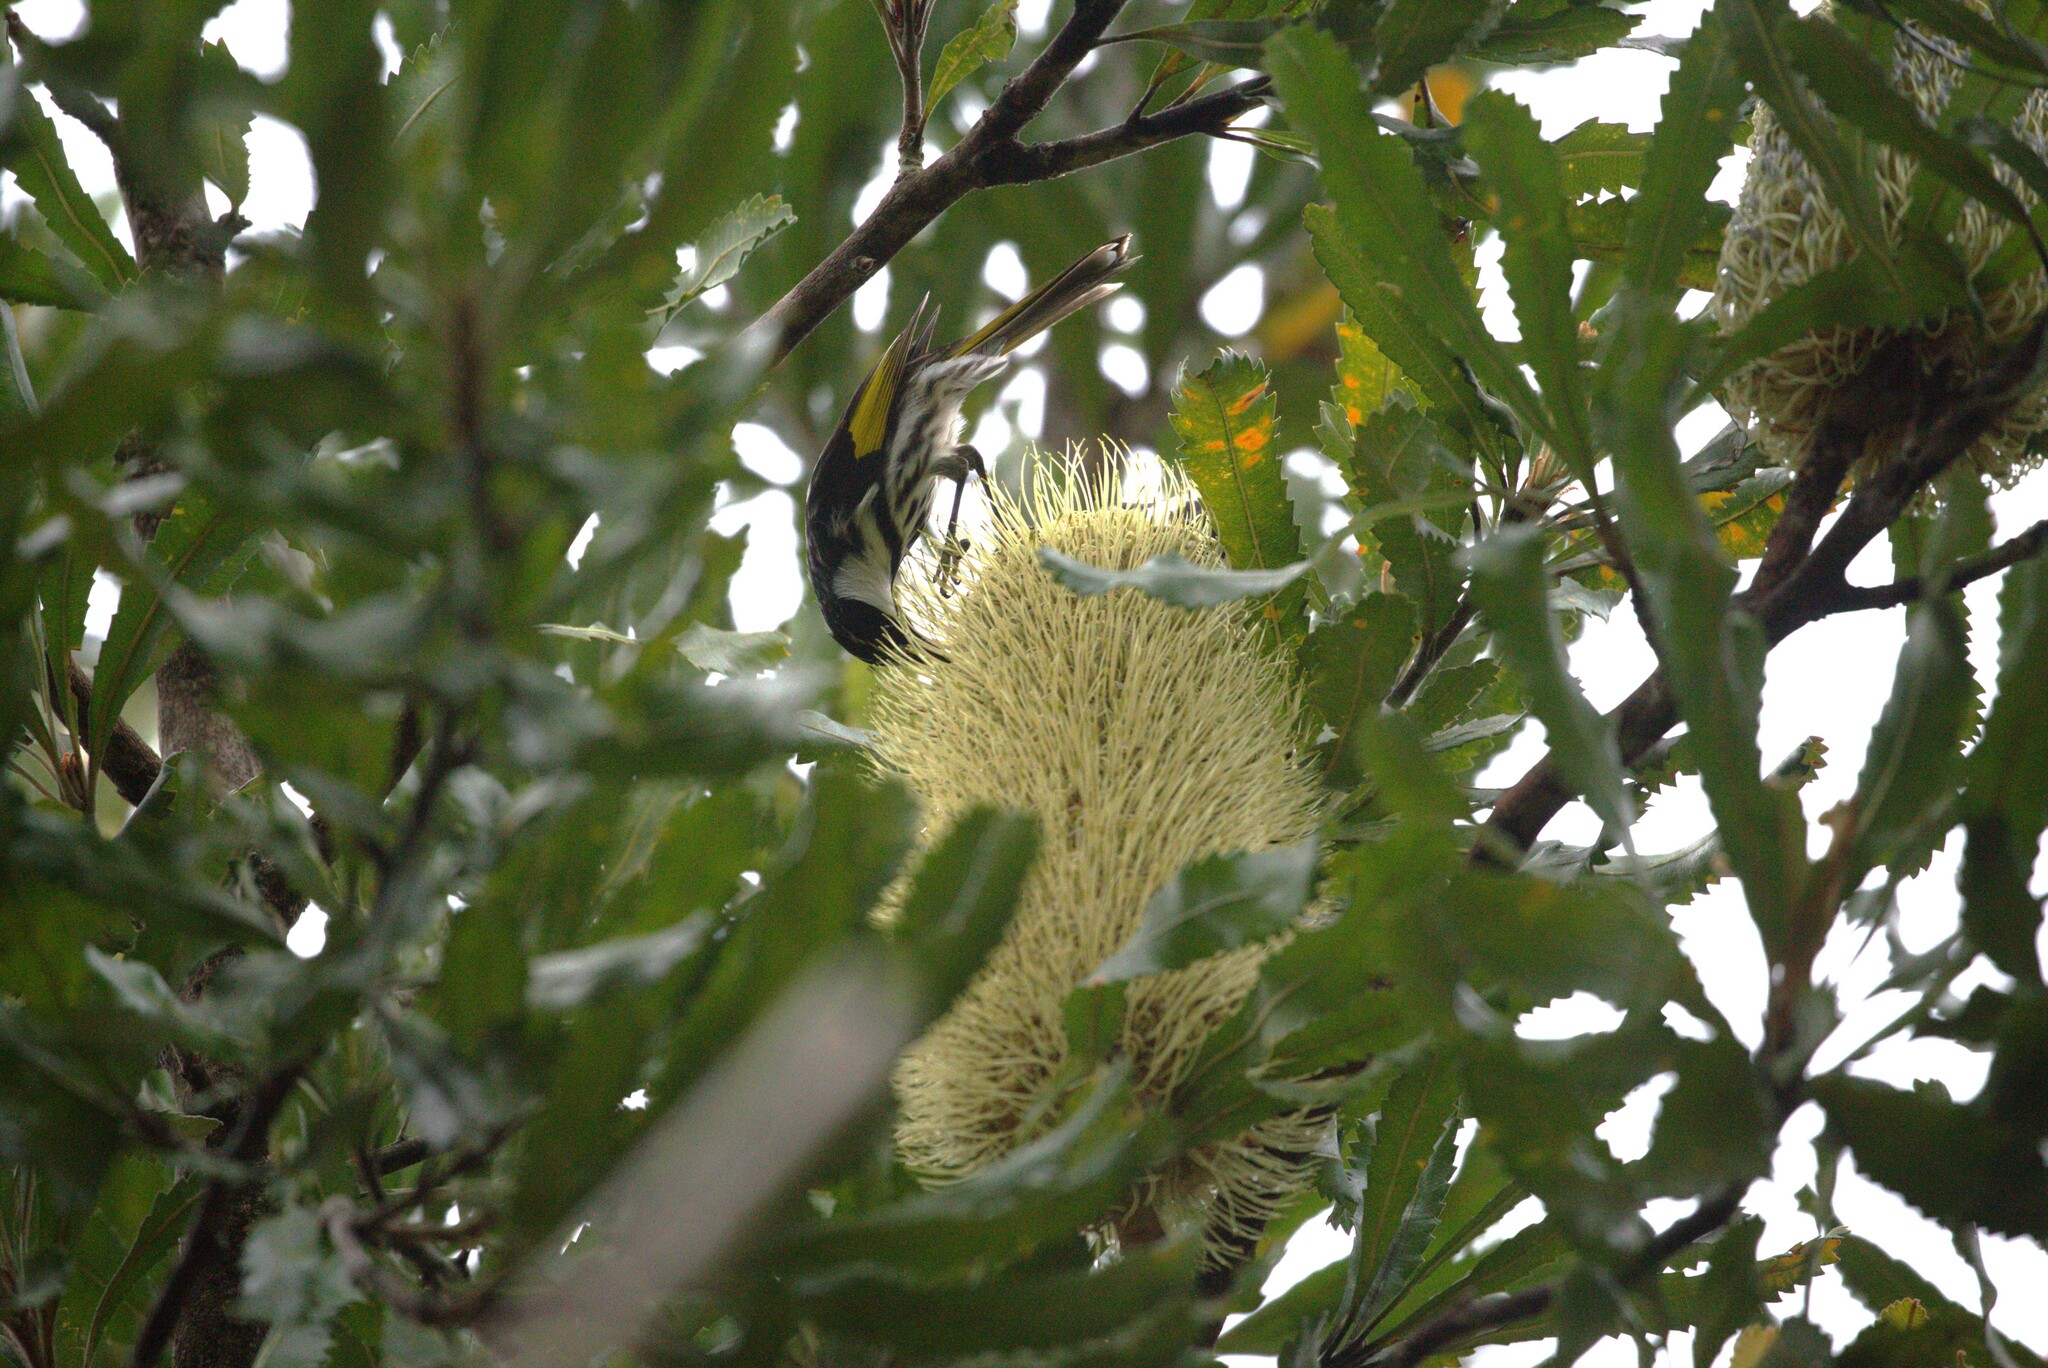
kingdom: Animalia
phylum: Chordata
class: Aves
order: Passeriformes
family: Meliphagidae
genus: Phylidonyris
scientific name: Phylidonyris niger
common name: White-cheeked honeyeater
